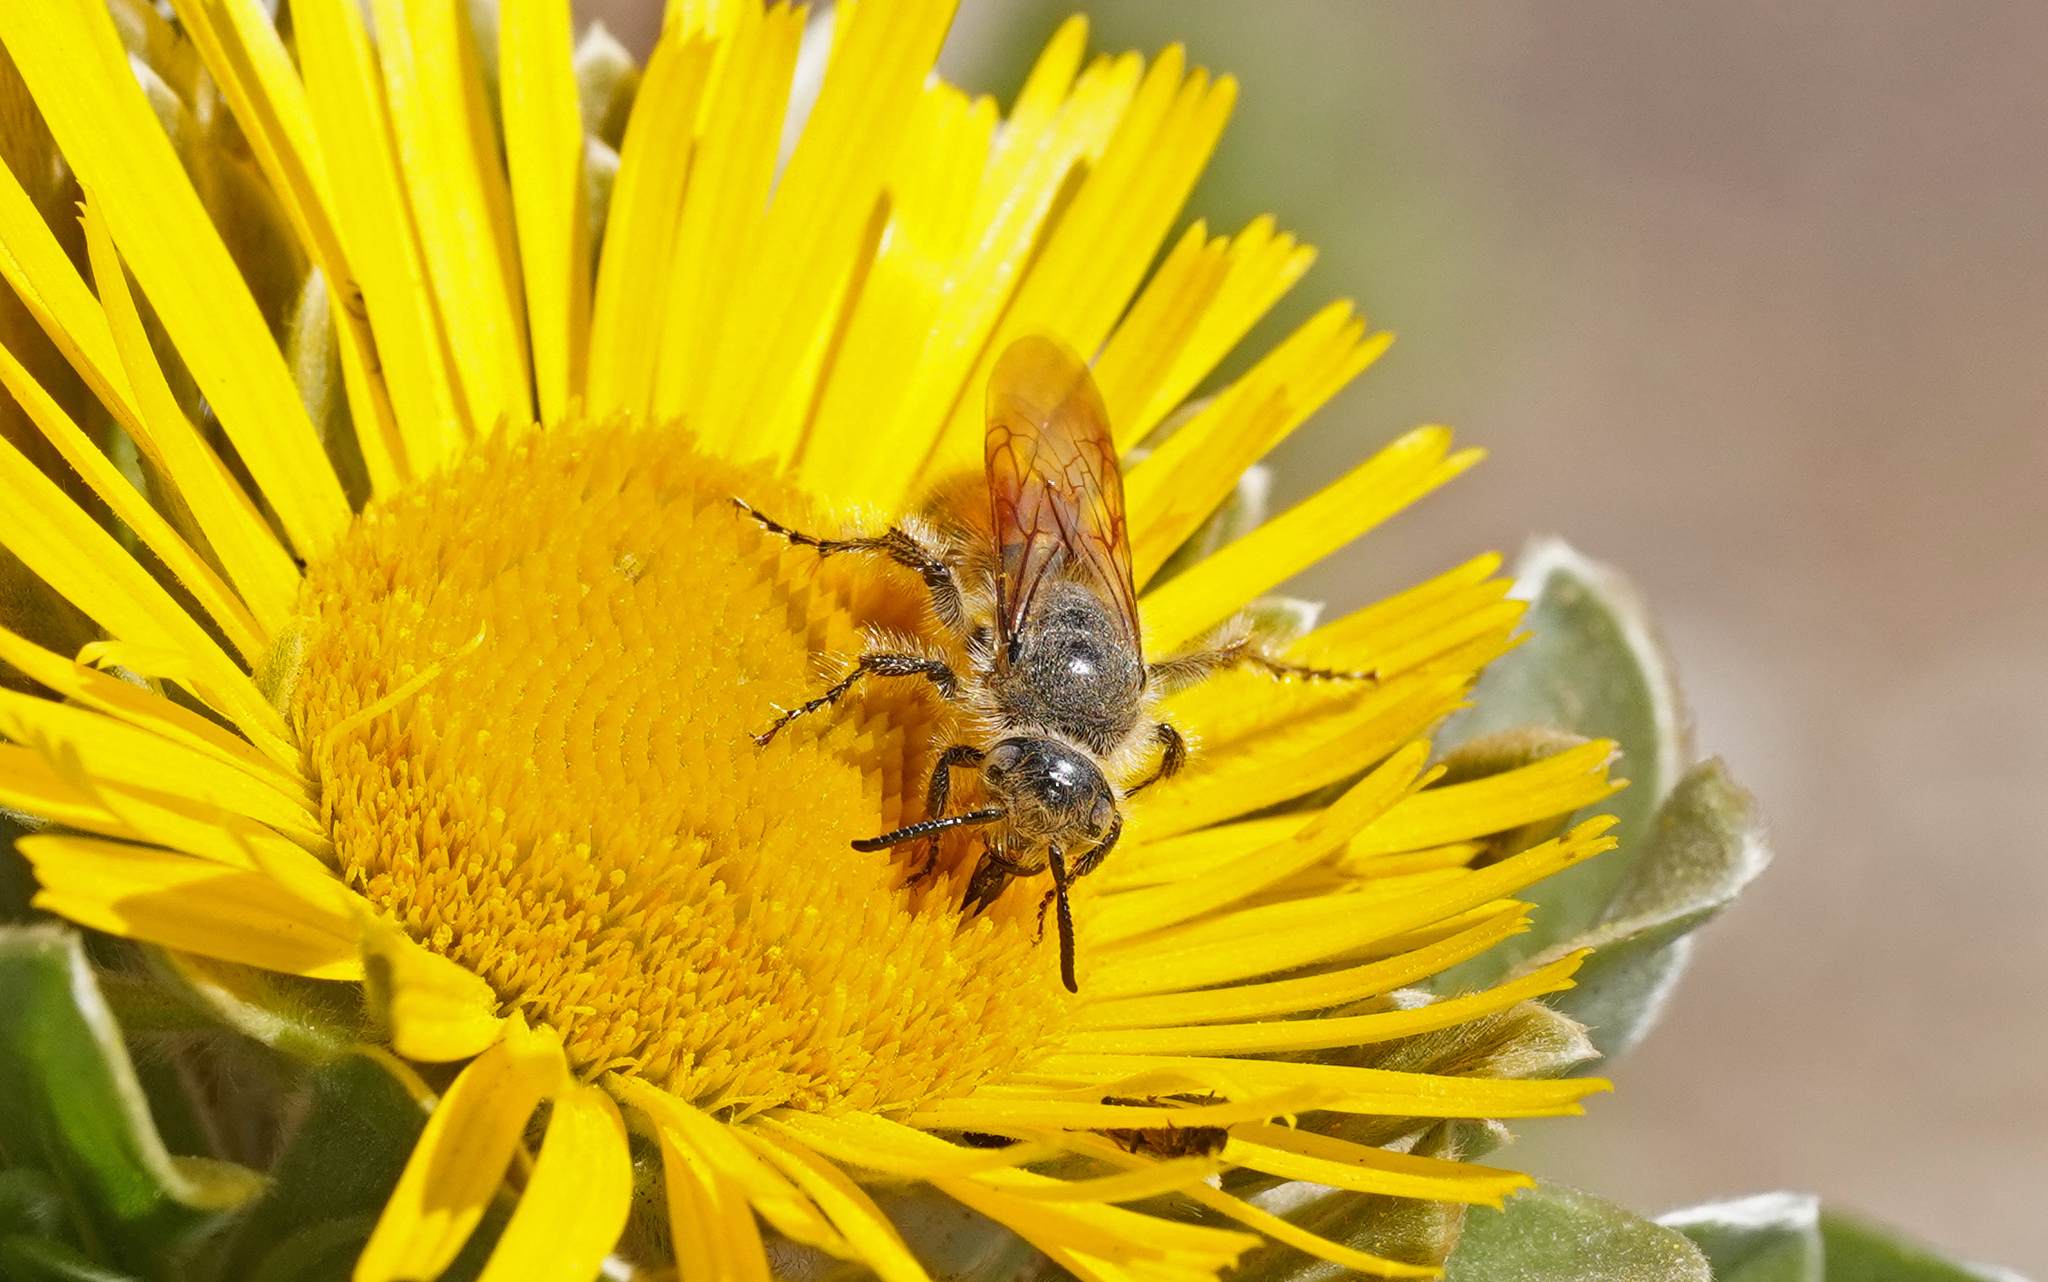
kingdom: Animalia
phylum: Arthropoda
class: Insecta
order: Hymenoptera
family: Scoliidae
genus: Micromeriella
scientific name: Micromeriella aureola
